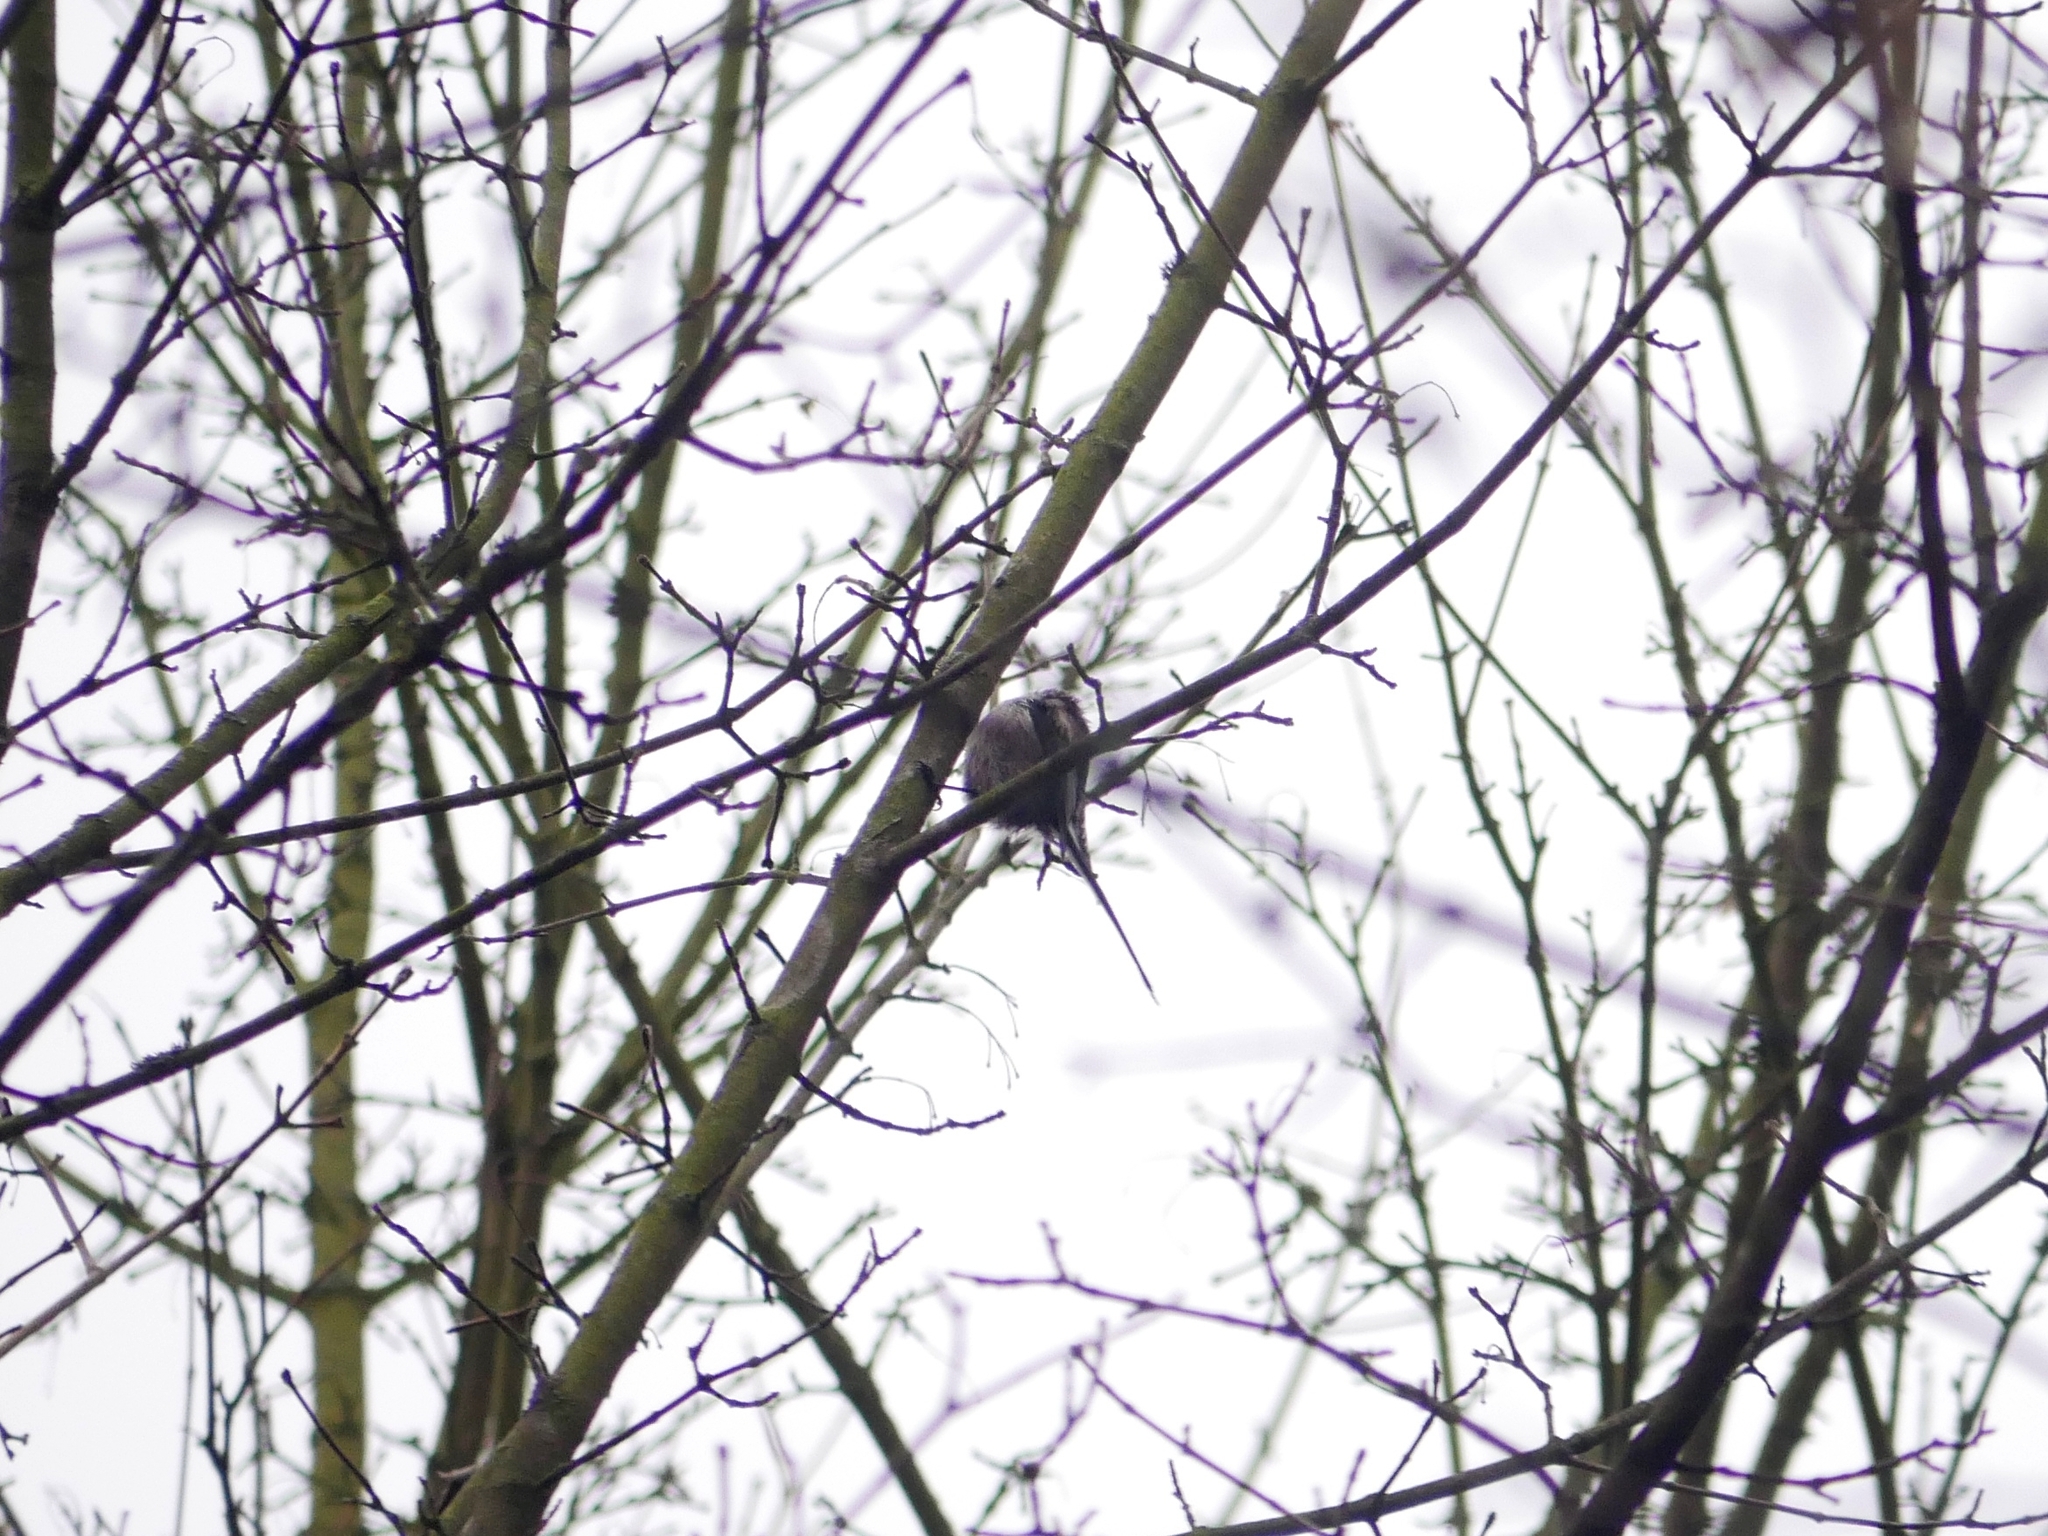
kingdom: Animalia
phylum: Chordata
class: Aves
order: Passeriformes
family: Aegithalidae
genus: Aegithalos
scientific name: Aegithalos caudatus
